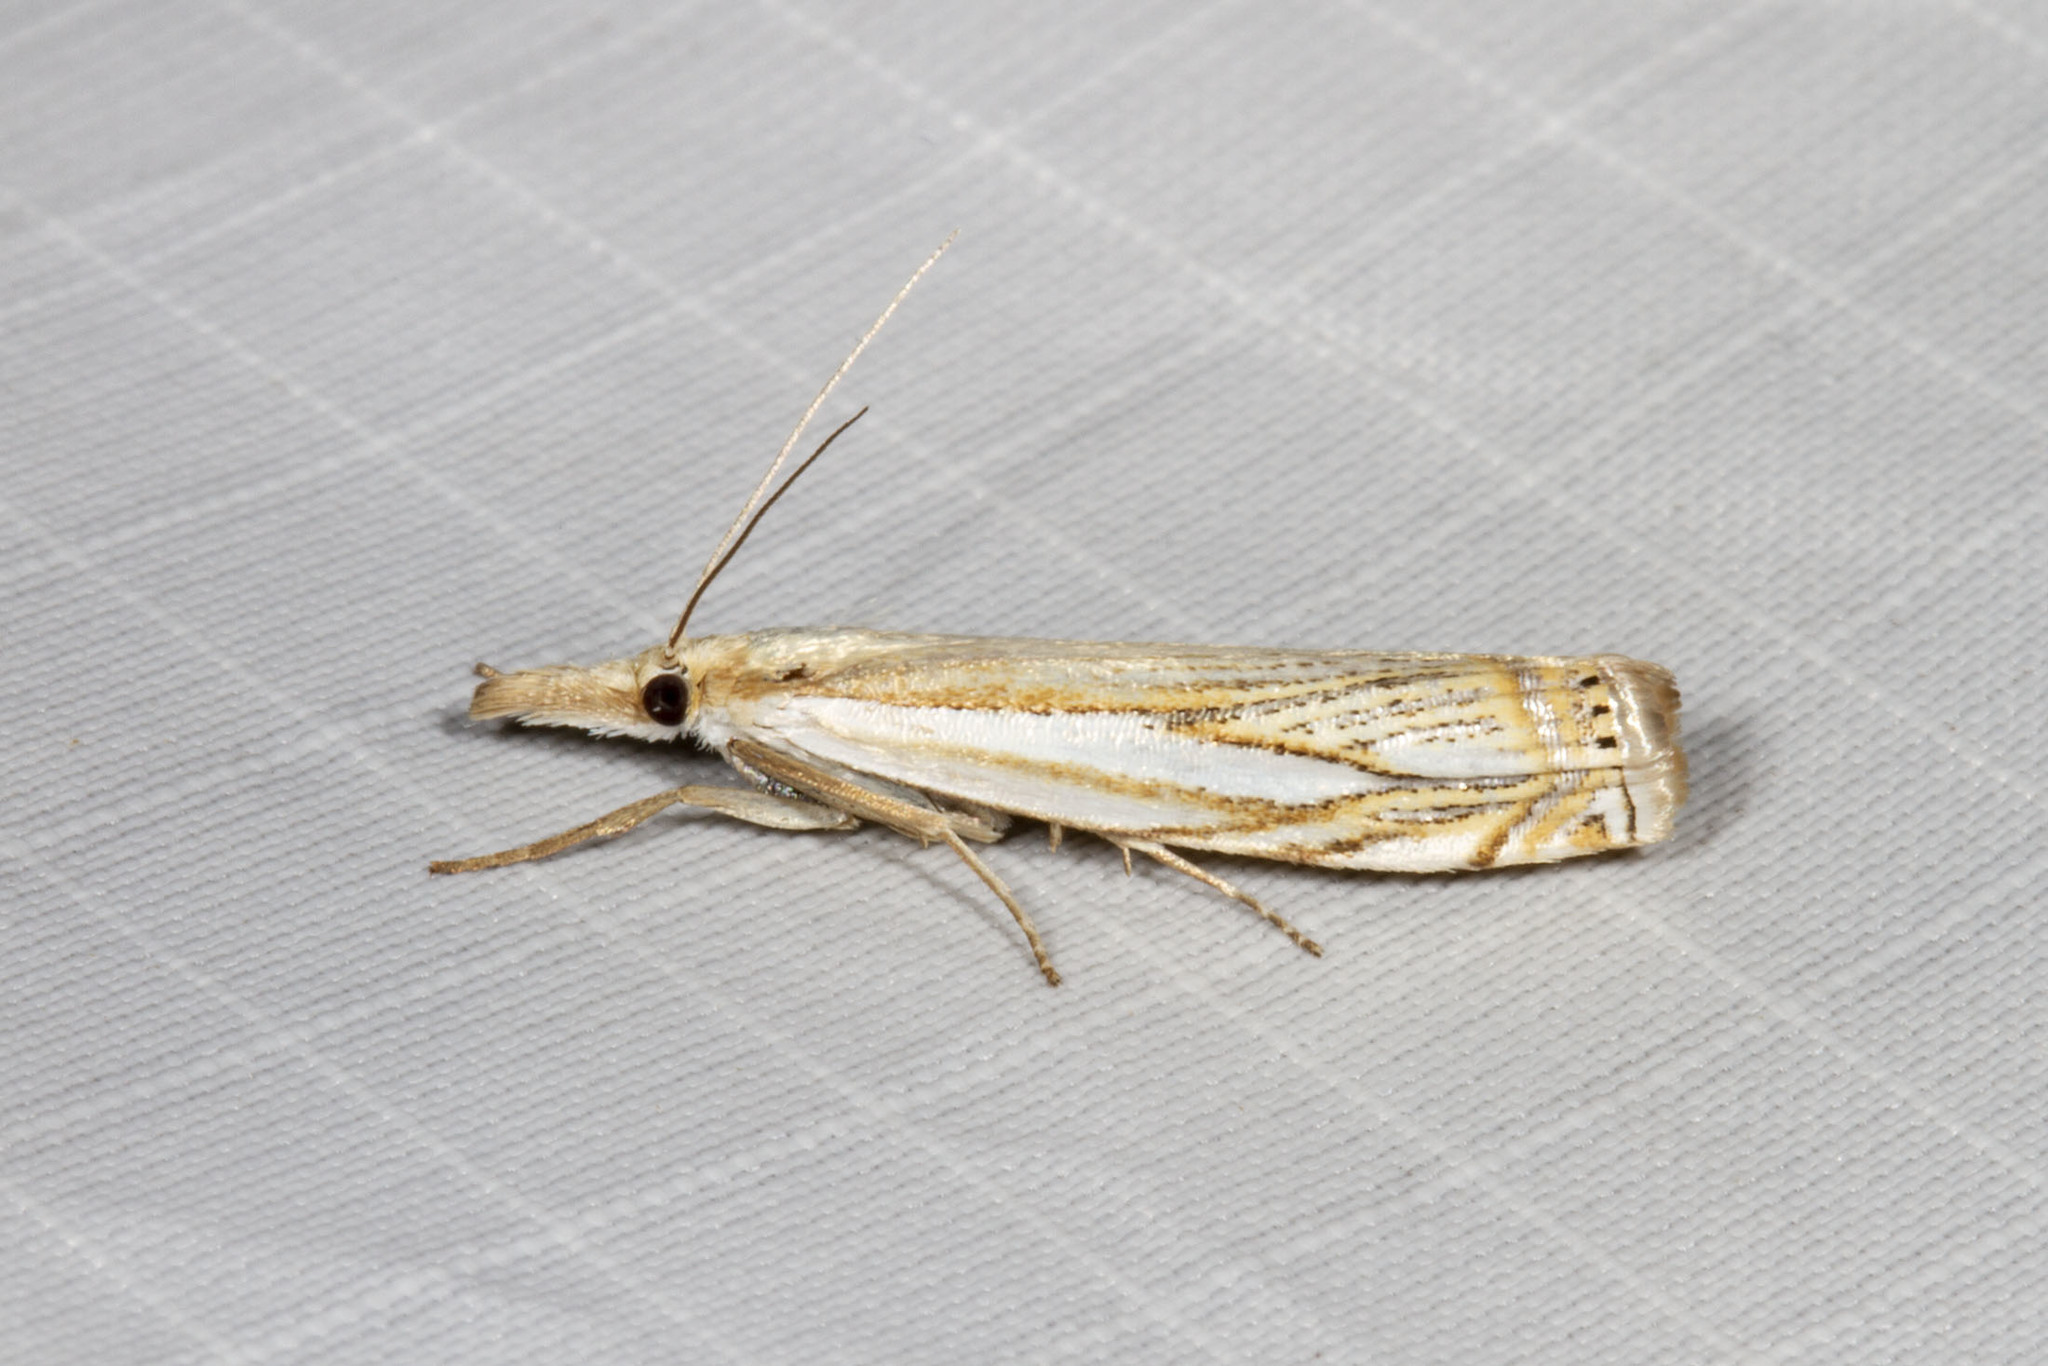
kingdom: Animalia
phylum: Arthropoda
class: Insecta
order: Lepidoptera
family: Crambidae
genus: Crambus
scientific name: Crambus saltuellus
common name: Pasture grass-veneer
